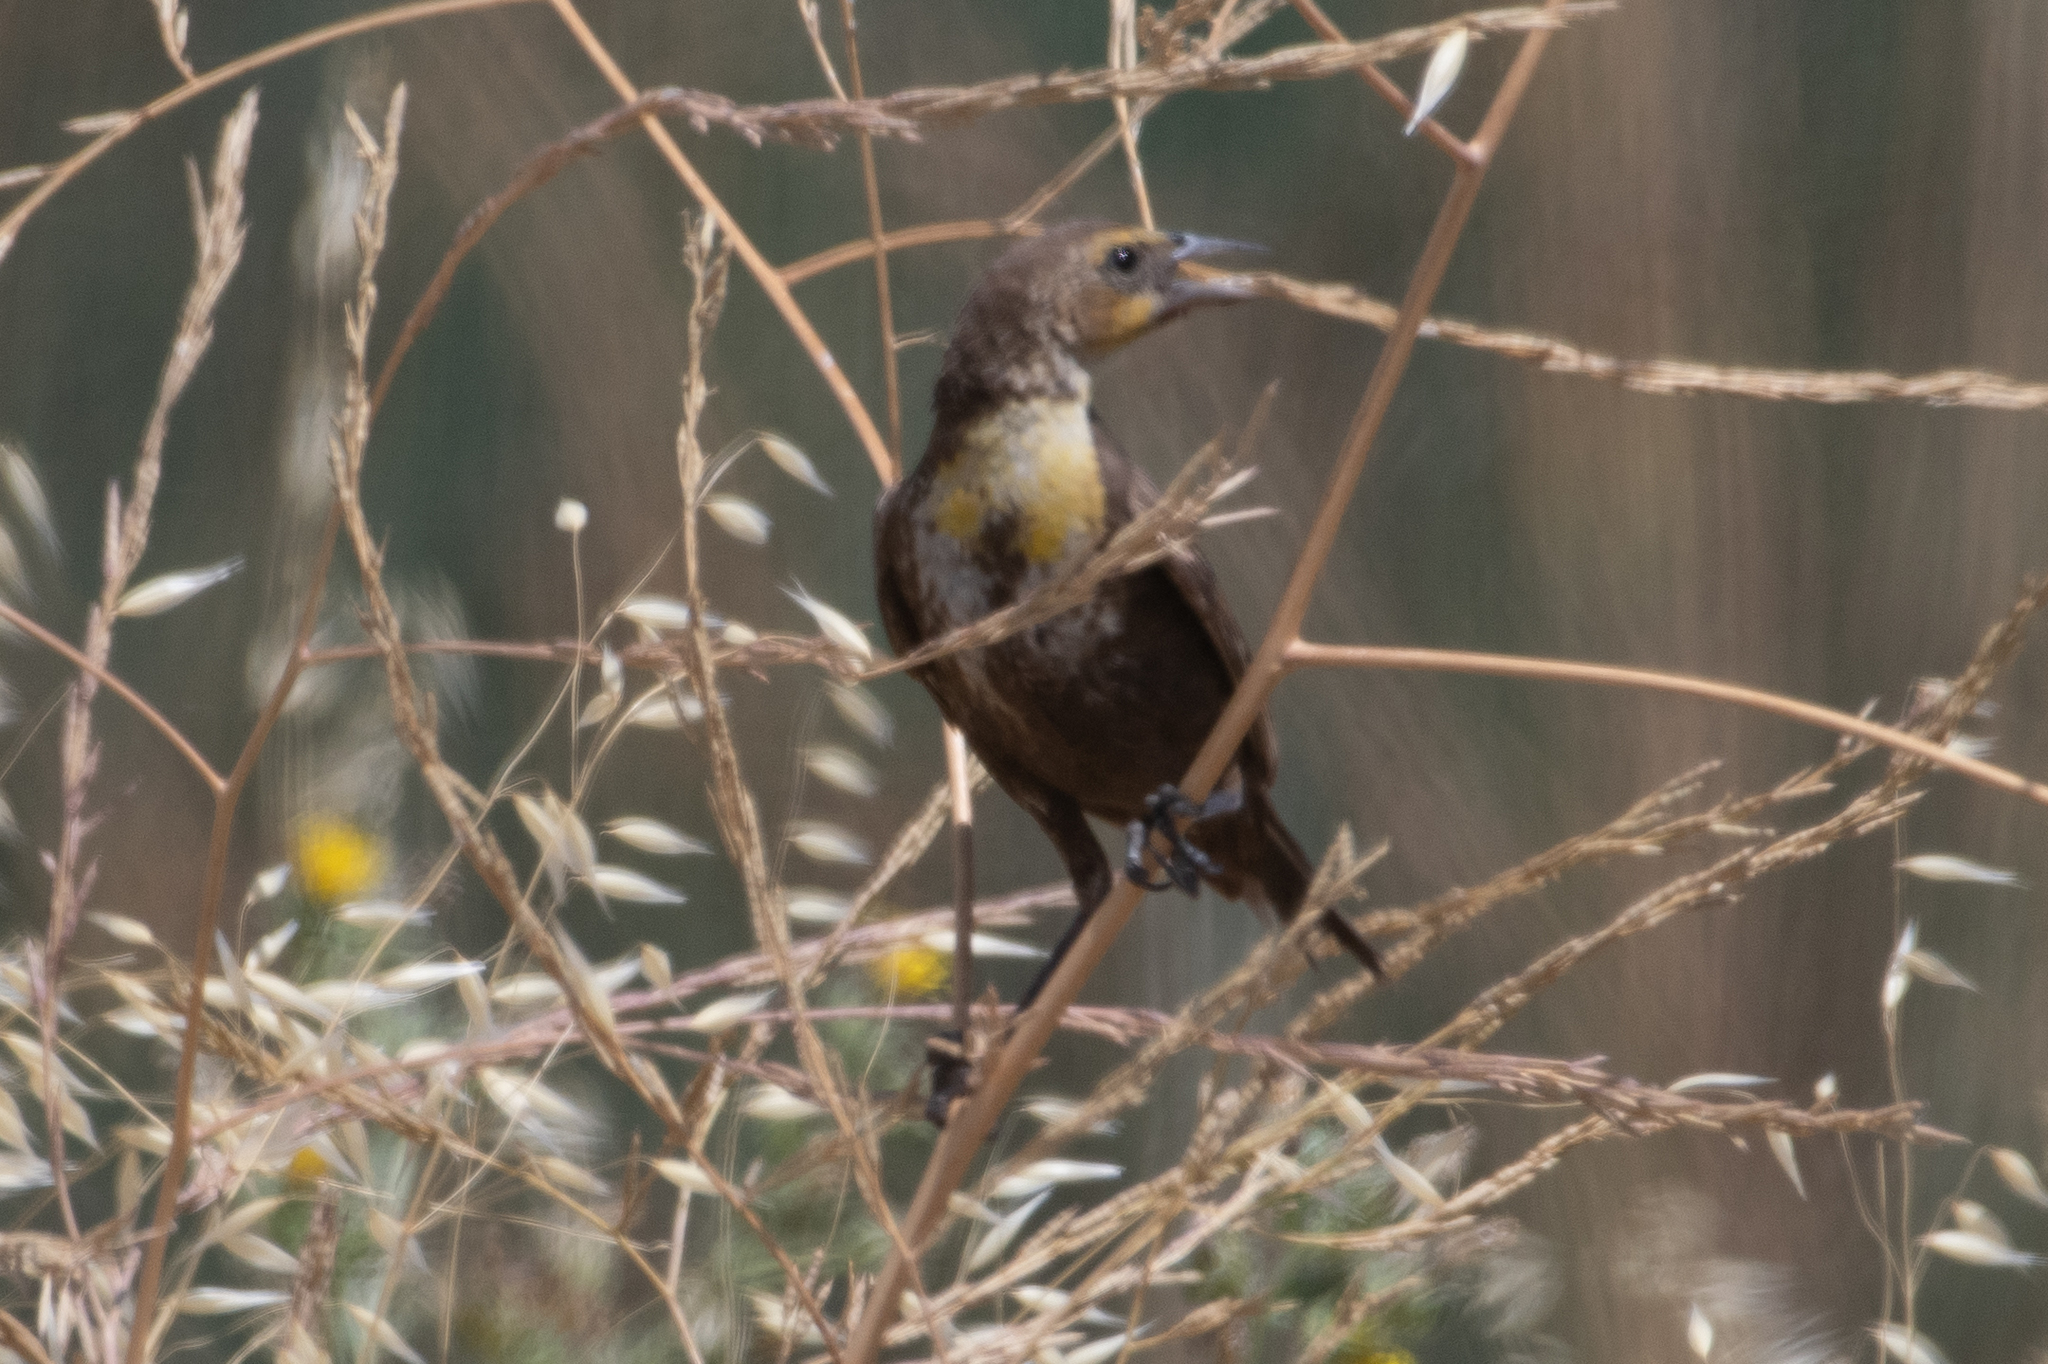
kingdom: Animalia
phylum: Chordata
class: Aves
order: Passeriformes
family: Icteridae
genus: Xanthocephalus
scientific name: Xanthocephalus xanthocephalus
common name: Yellow-headed blackbird
